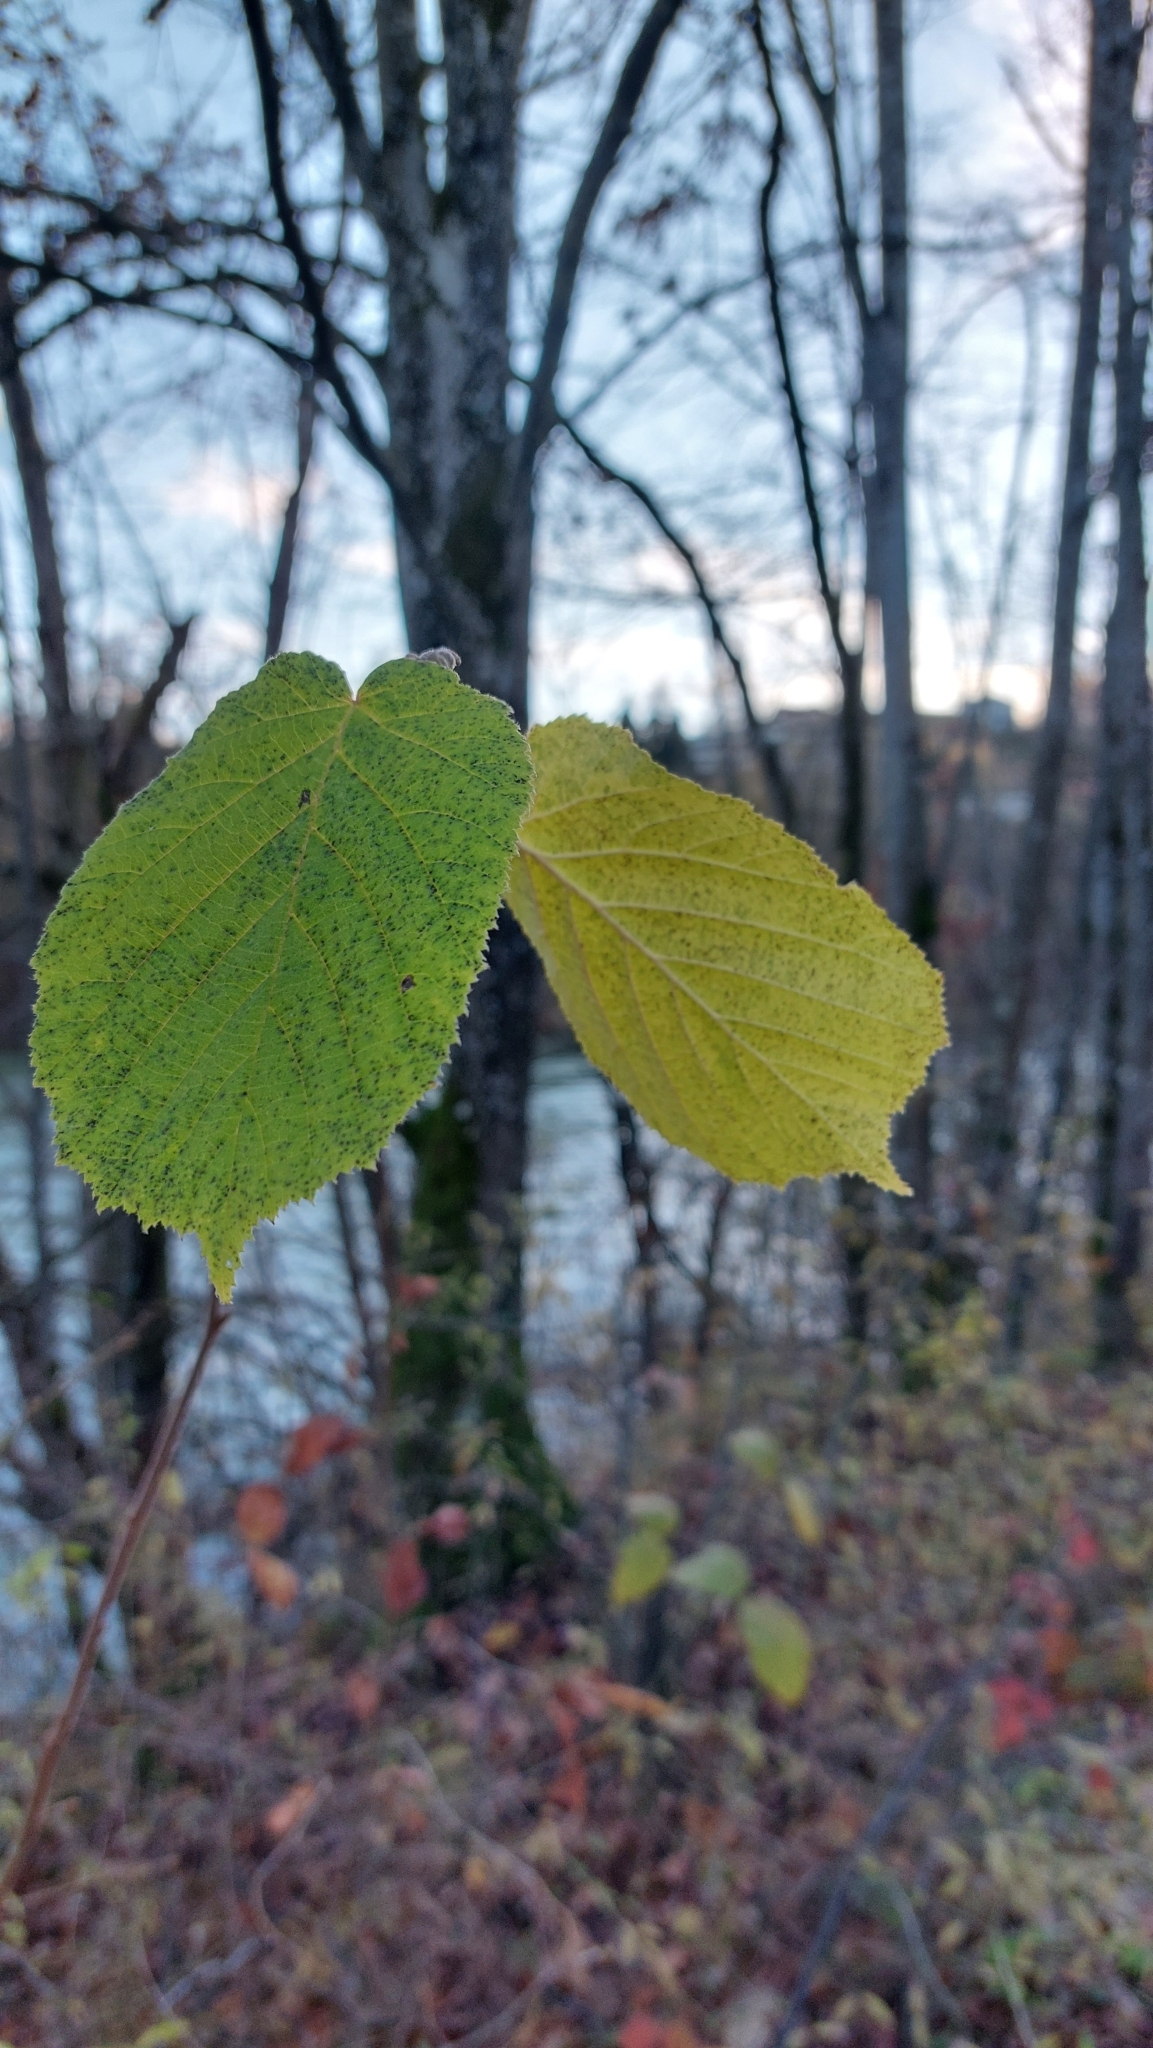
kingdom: Plantae
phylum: Tracheophyta
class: Magnoliopsida
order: Fagales
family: Betulaceae
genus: Corylus
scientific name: Corylus avellana
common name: European hazel
